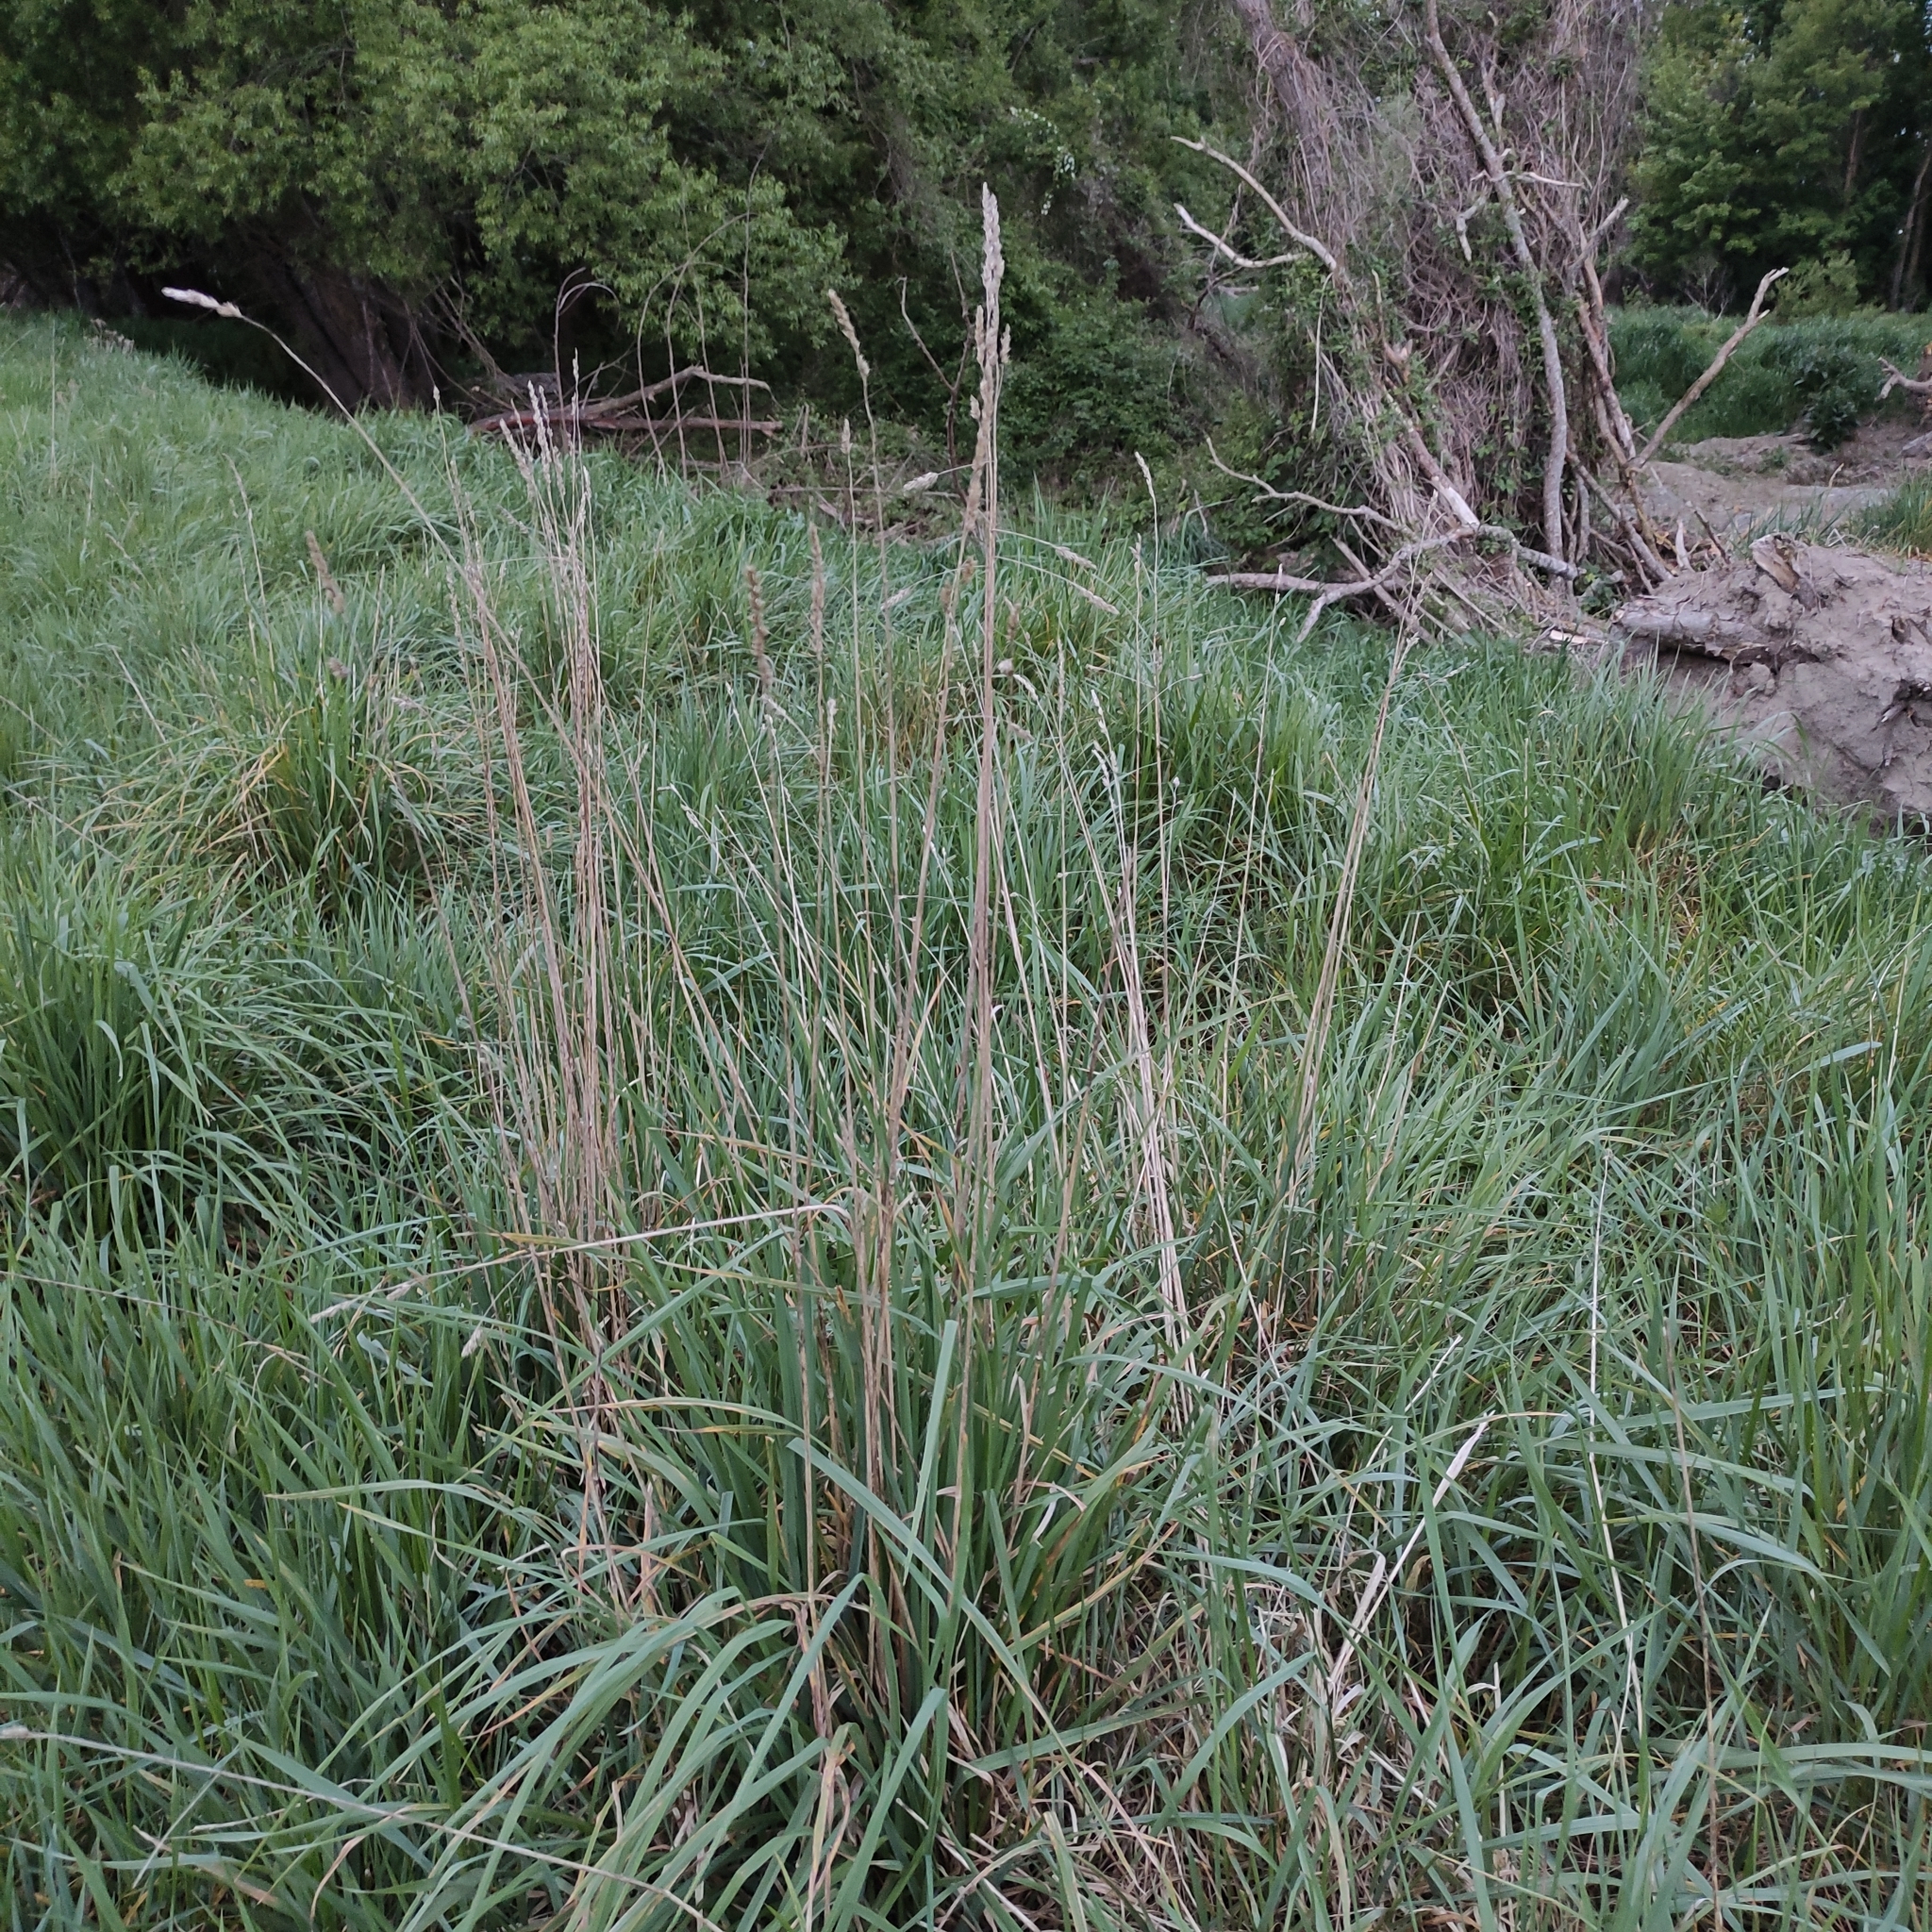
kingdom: Plantae
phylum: Tracheophyta
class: Liliopsida
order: Poales
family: Poaceae
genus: Dactylis
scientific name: Dactylis glomerata
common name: Orchardgrass
